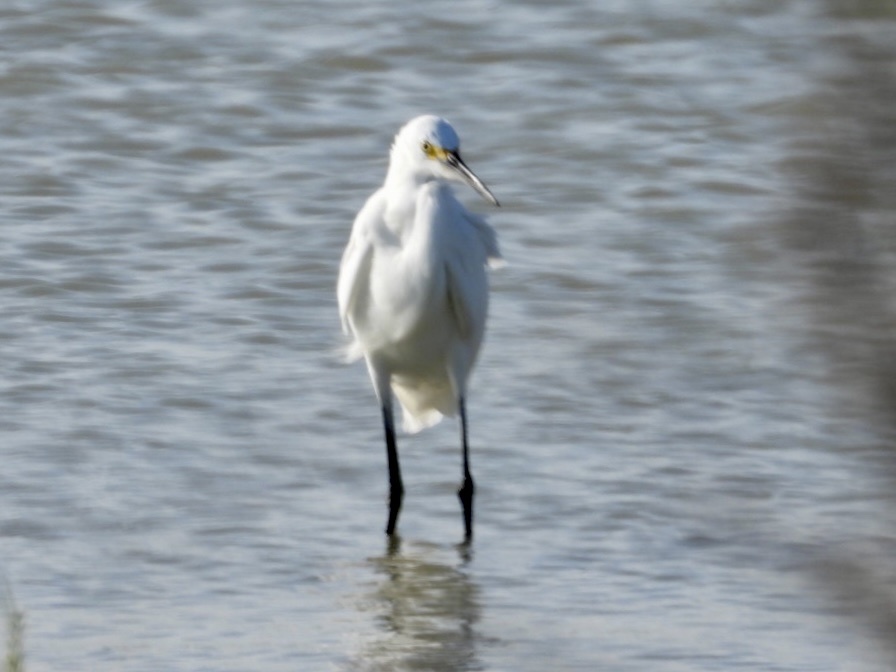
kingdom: Animalia
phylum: Chordata
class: Aves
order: Pelecaniformes
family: Ardeidae
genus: Egretta
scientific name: Egretta thula
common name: Snowy egret
